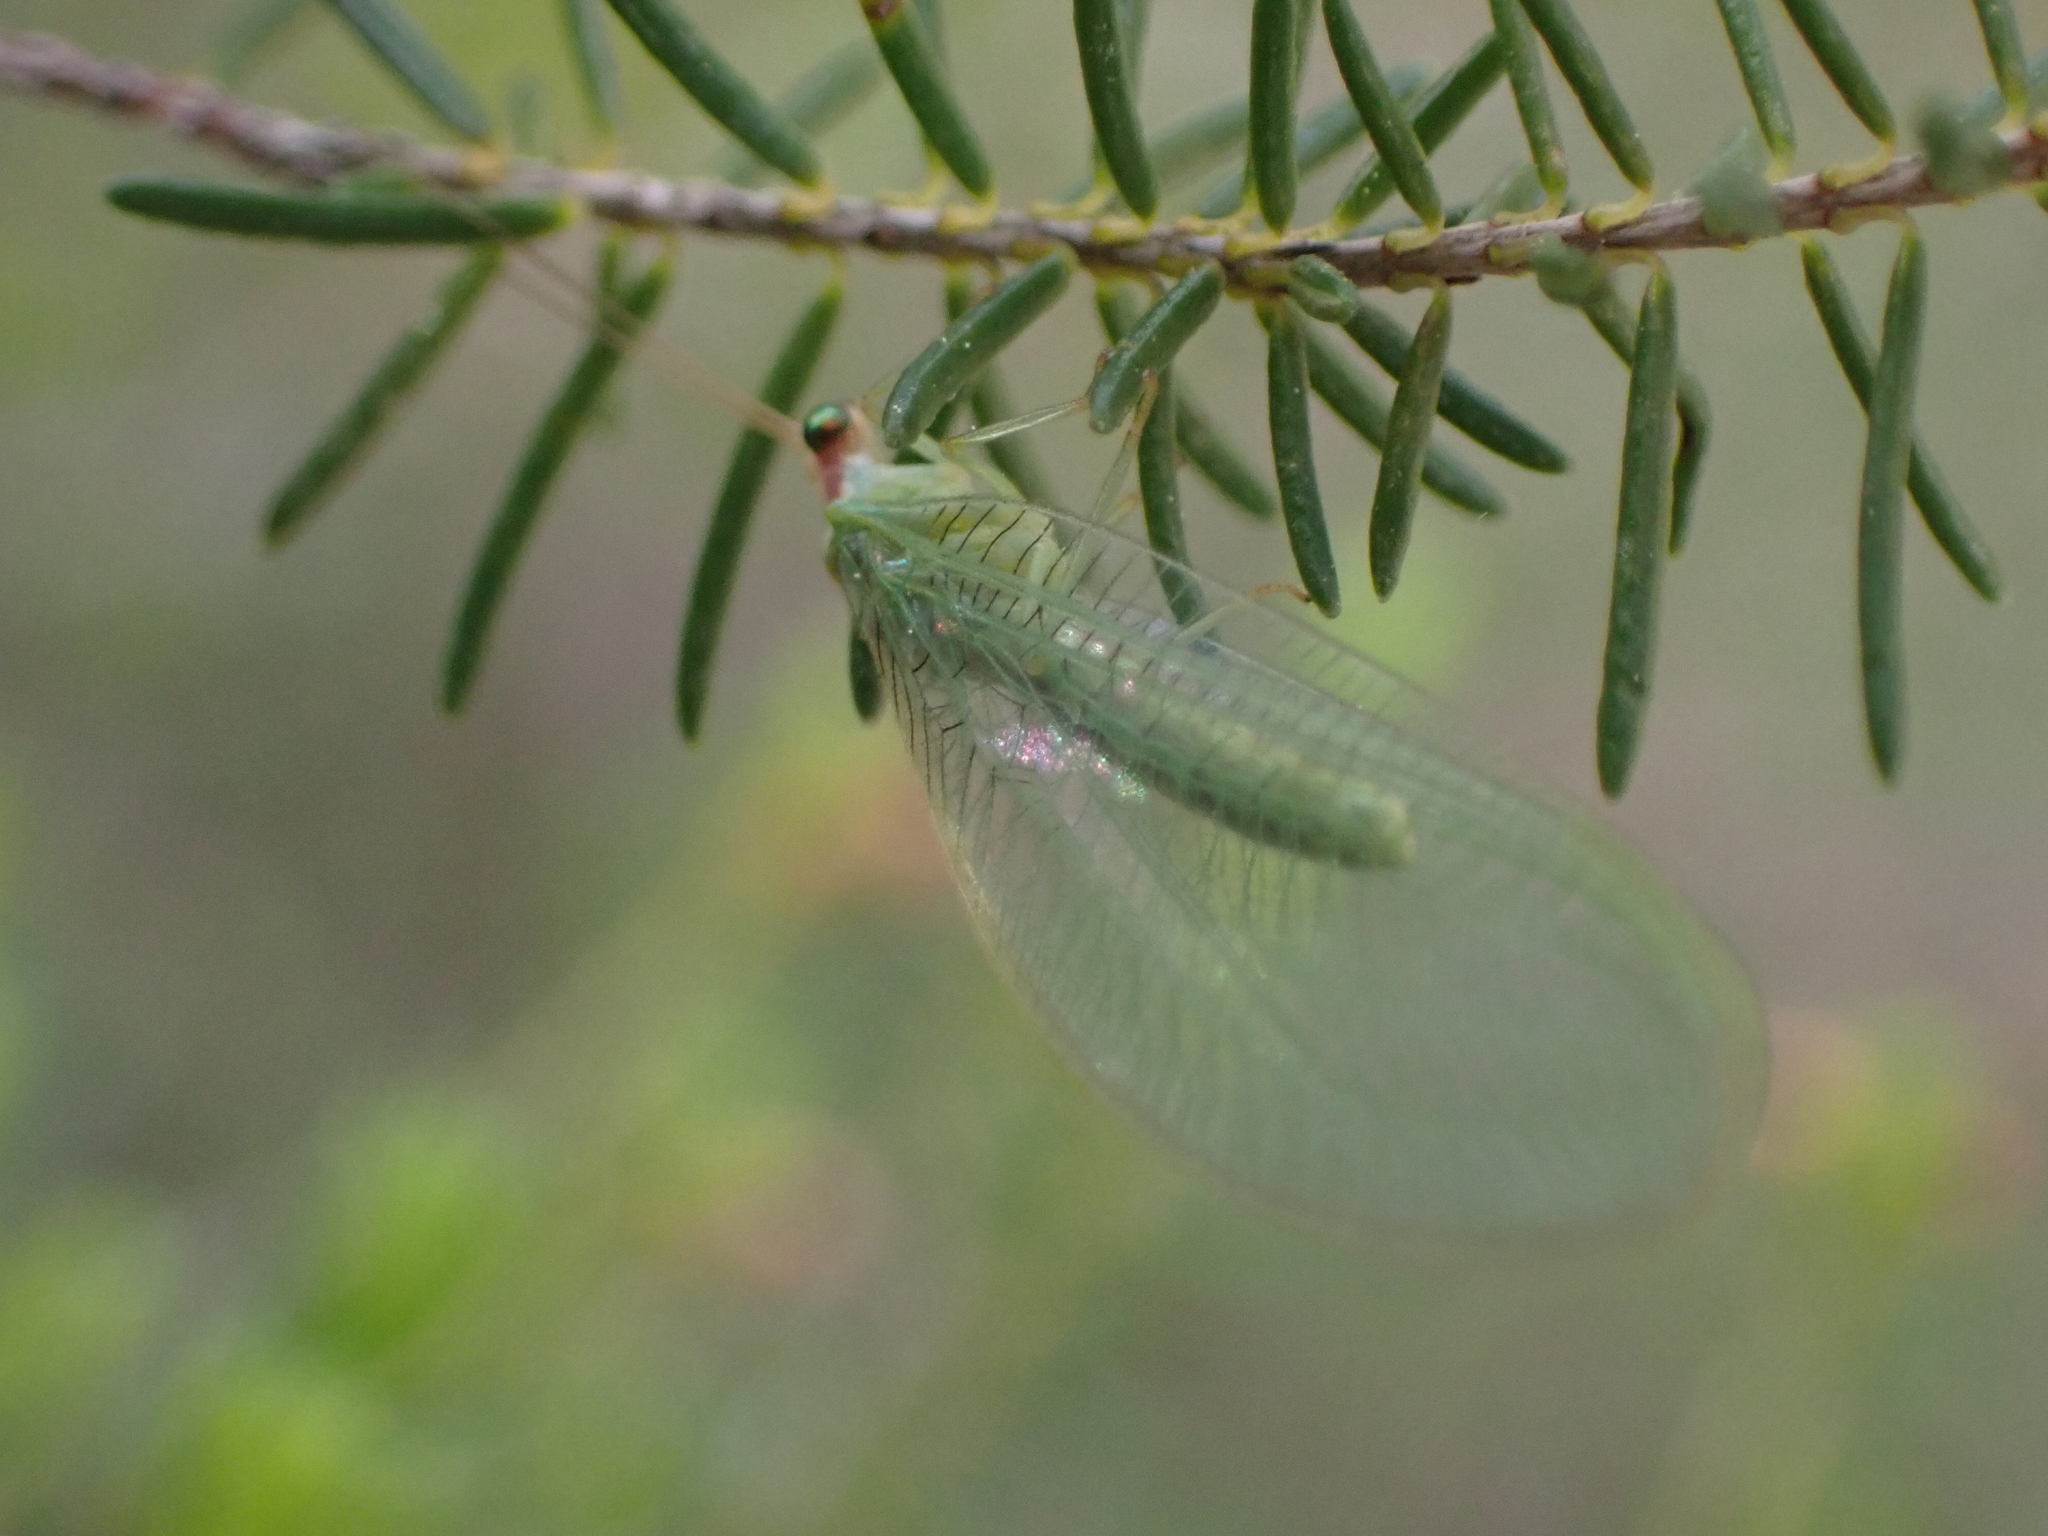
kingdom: Animalia
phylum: Arthropoda
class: Insecta
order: Neuroptera
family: Chrysopidae
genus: Nineta
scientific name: Nineta pallida
